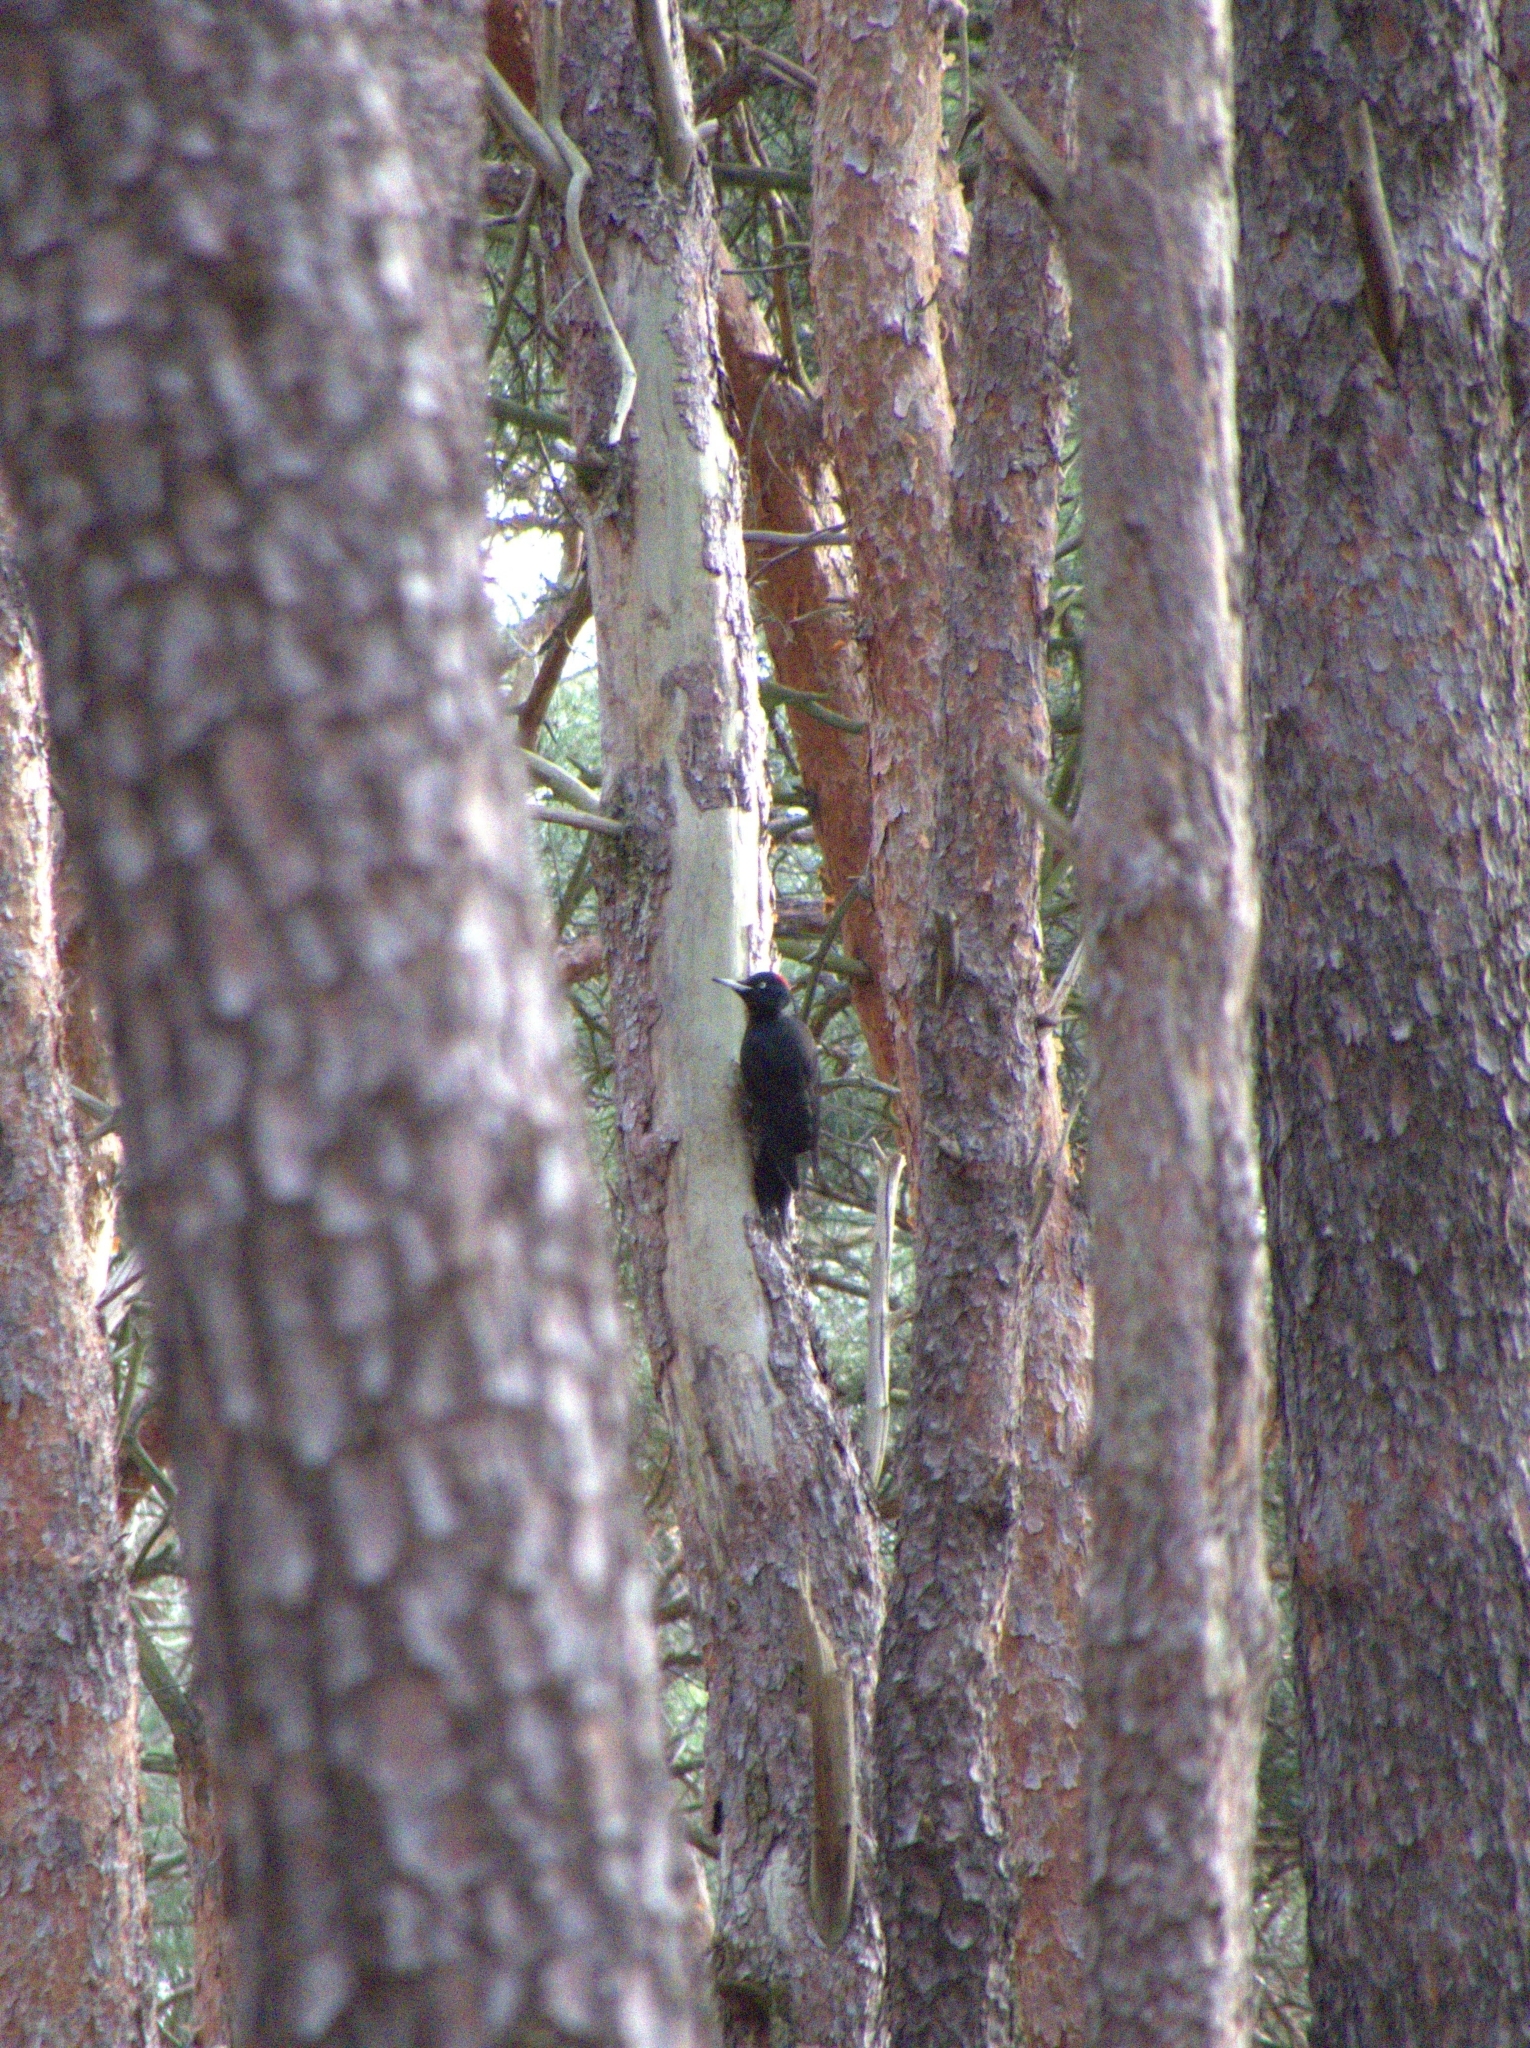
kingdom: Animalia
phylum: Chordata
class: Aves
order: Piciformes
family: Picidae
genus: Dryocopus
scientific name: Dryocopus martius
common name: Black woodpecker
